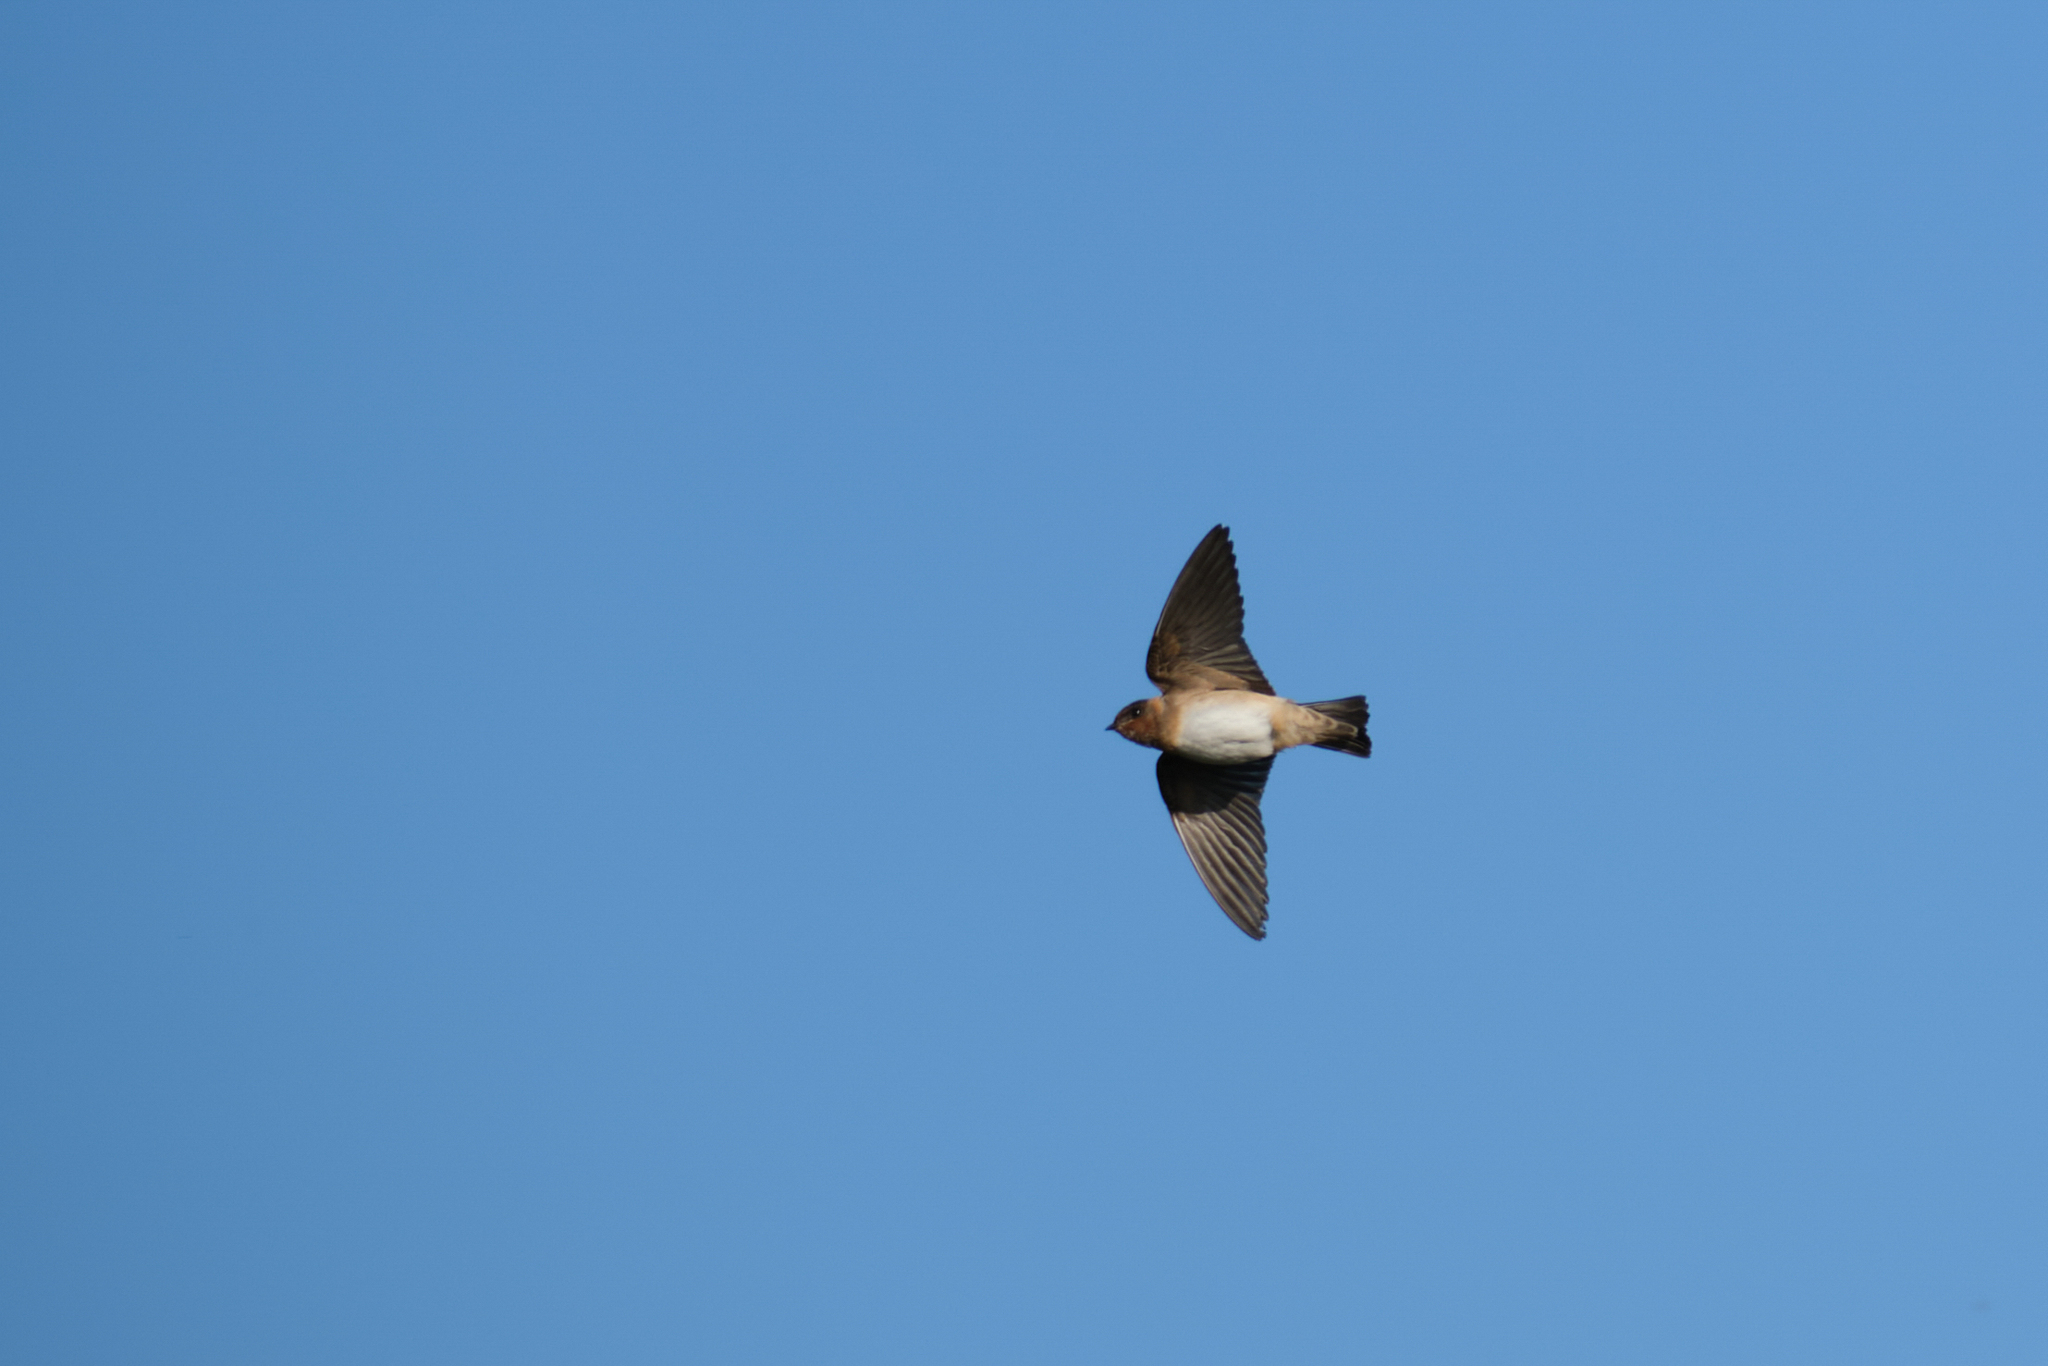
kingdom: Animalia
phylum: Chordata
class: Aves
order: Passeriformes
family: Hirundinidae
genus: Petrochelidon
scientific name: Petrochelidon pyrrhonota
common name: American cliff swallow
